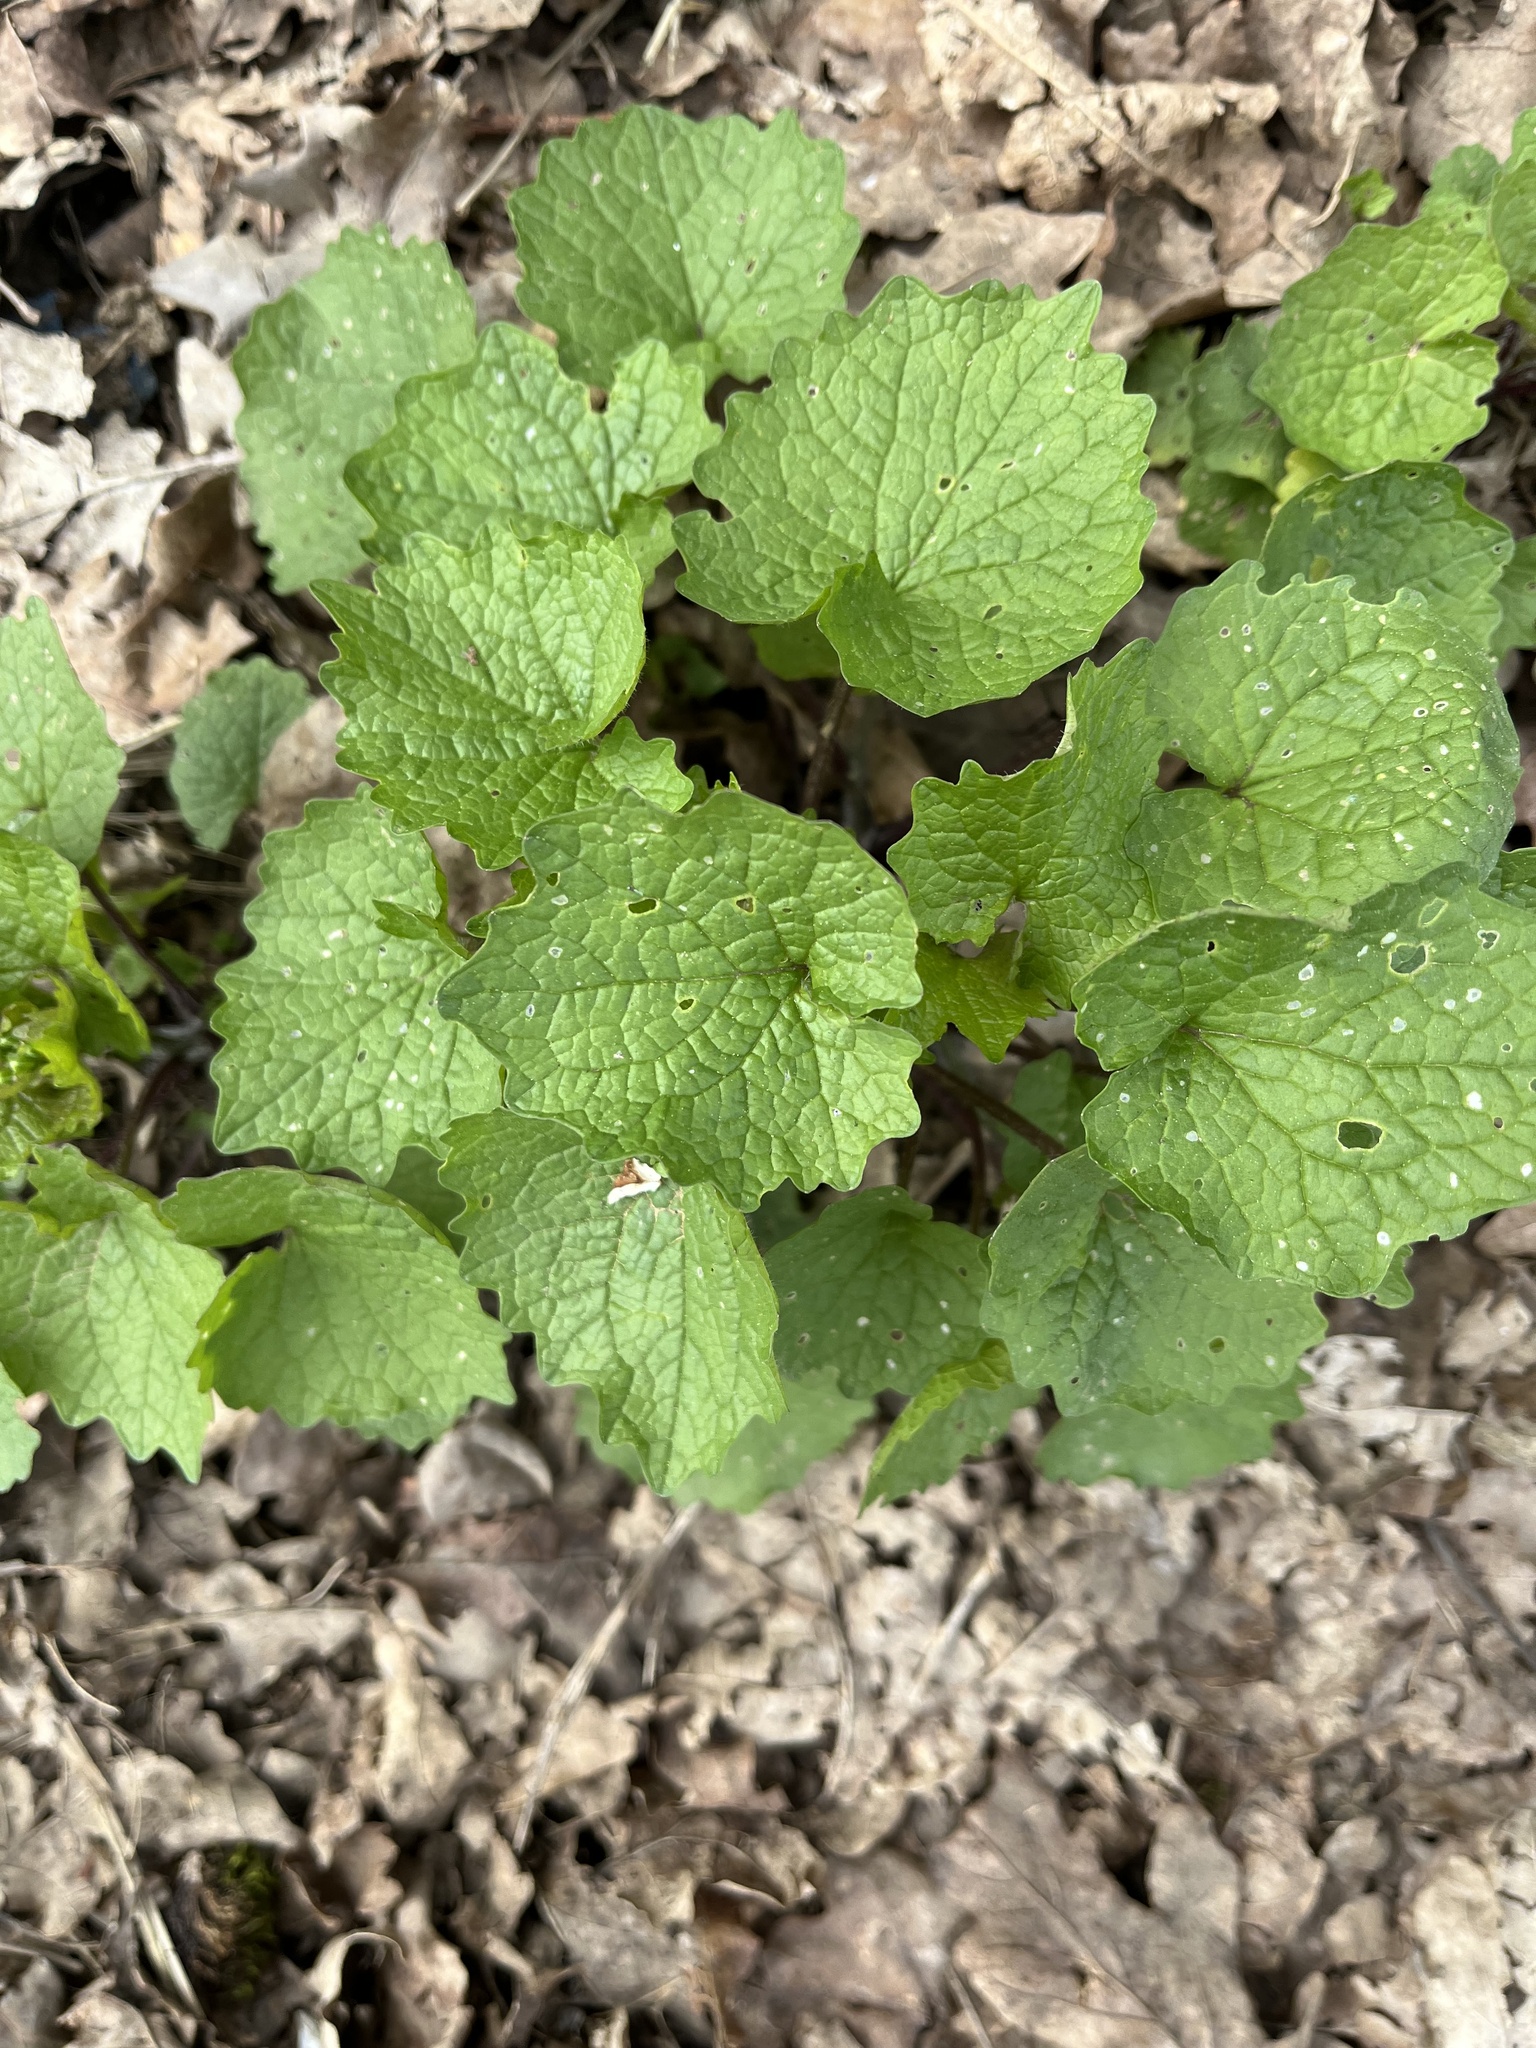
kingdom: Plantae
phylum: Tracheophyta
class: Magnoliopsida
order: Brassicales
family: Brassicaceae
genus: Alliaria
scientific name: Alliaria petiolata
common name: Garlic mustard
